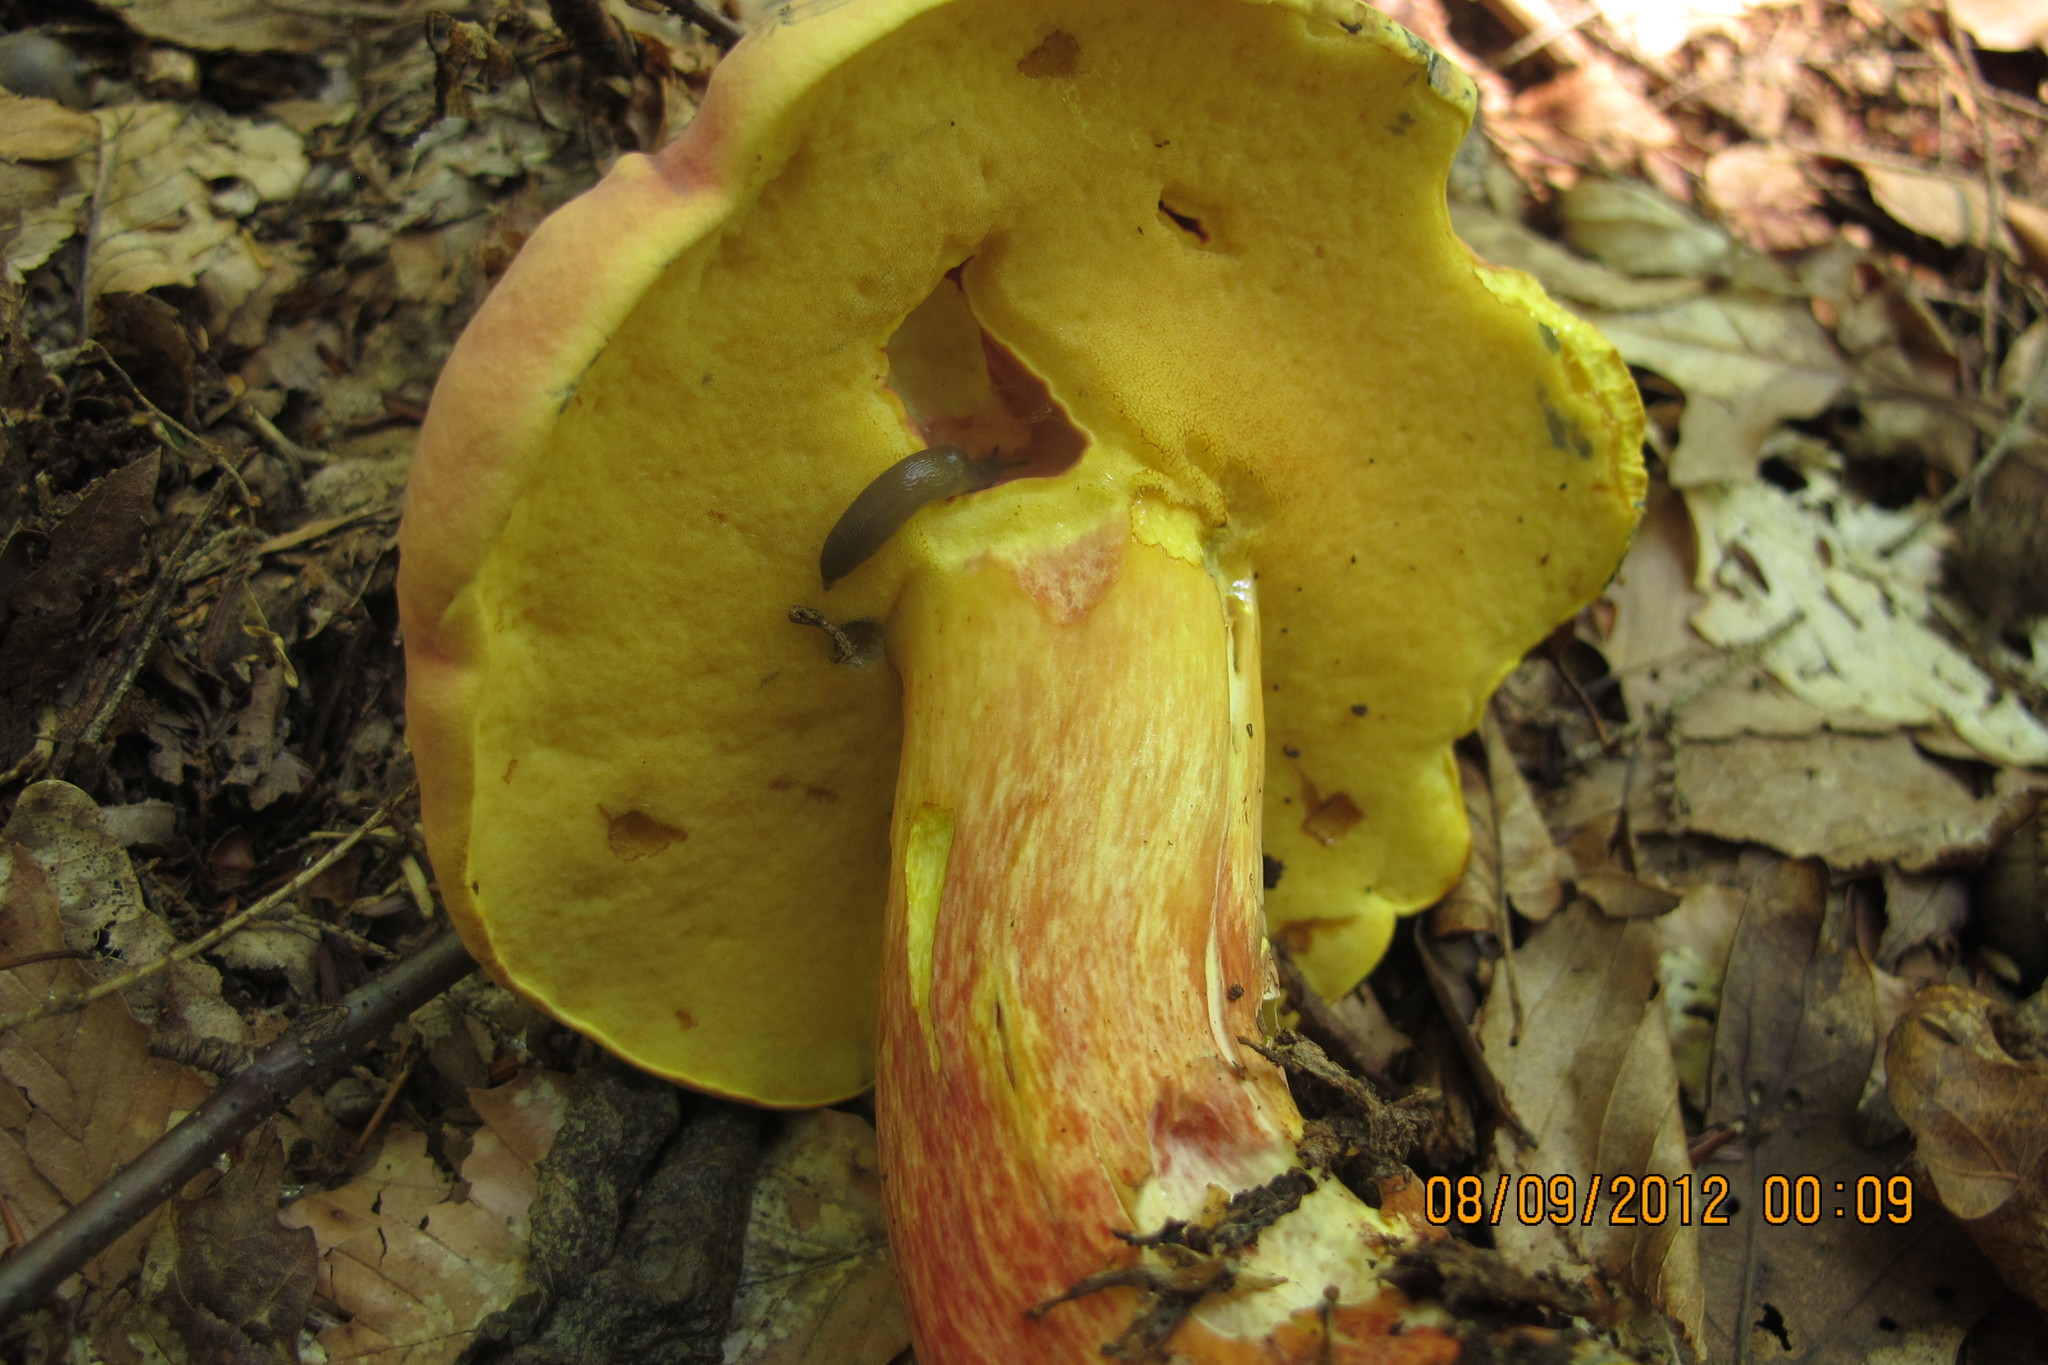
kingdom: Fungi
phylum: Basidiomycota
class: Agaricomycetes
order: Boletales
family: Boletaceae
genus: Lanmaoa
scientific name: Lanmaoa pallidorosea
